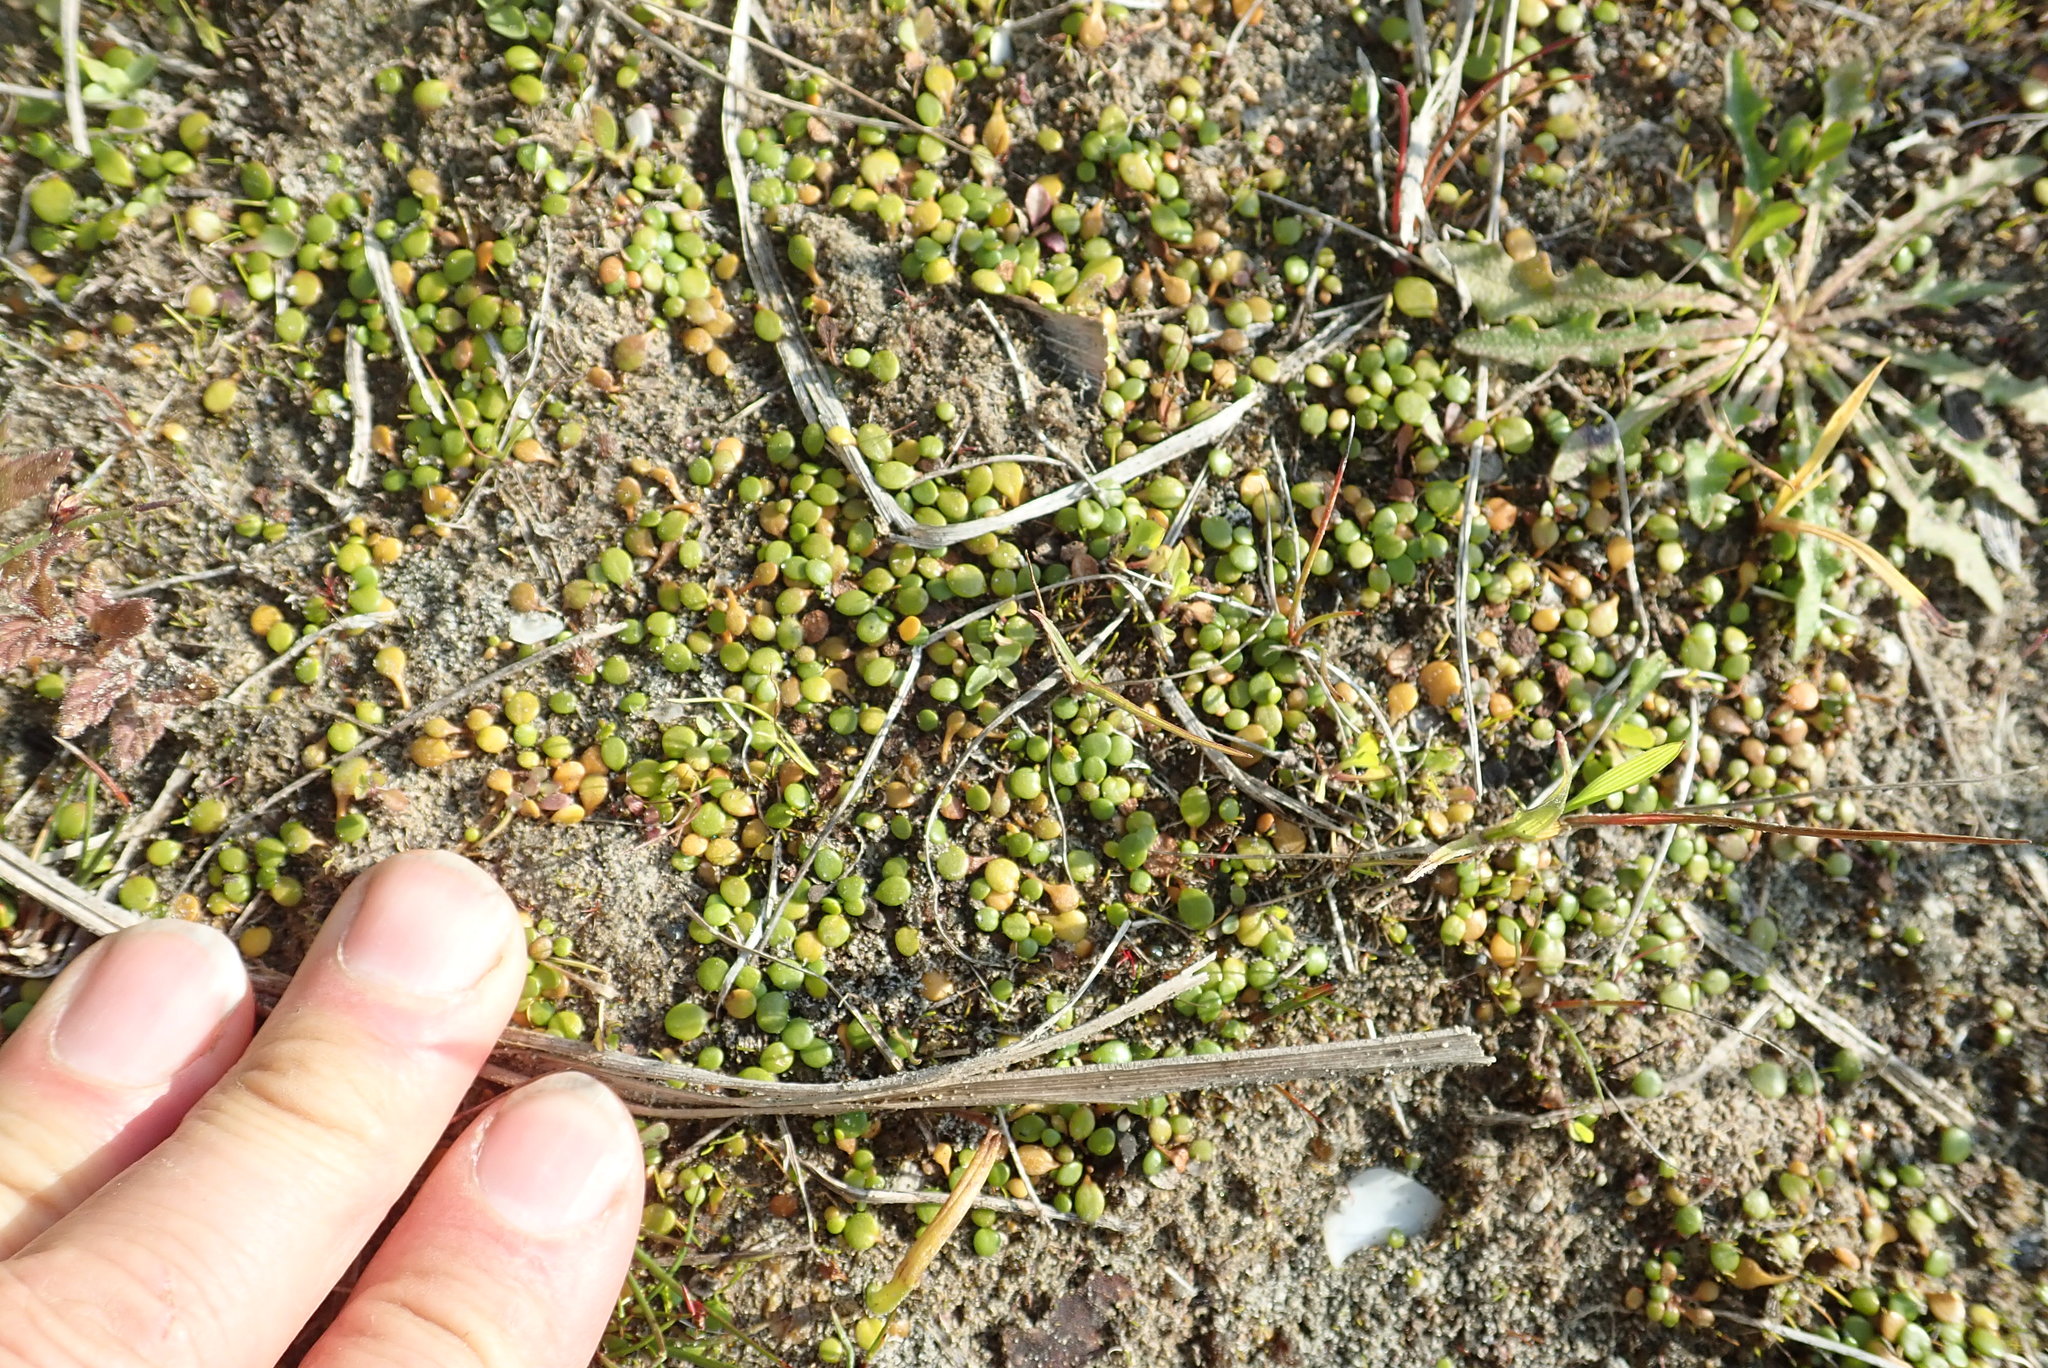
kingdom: Plantae
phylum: Tracheophyta
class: Magnoliopsida
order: Asterales
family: Goodeniaceae
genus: Goodenia
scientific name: Goodenia heenanii
